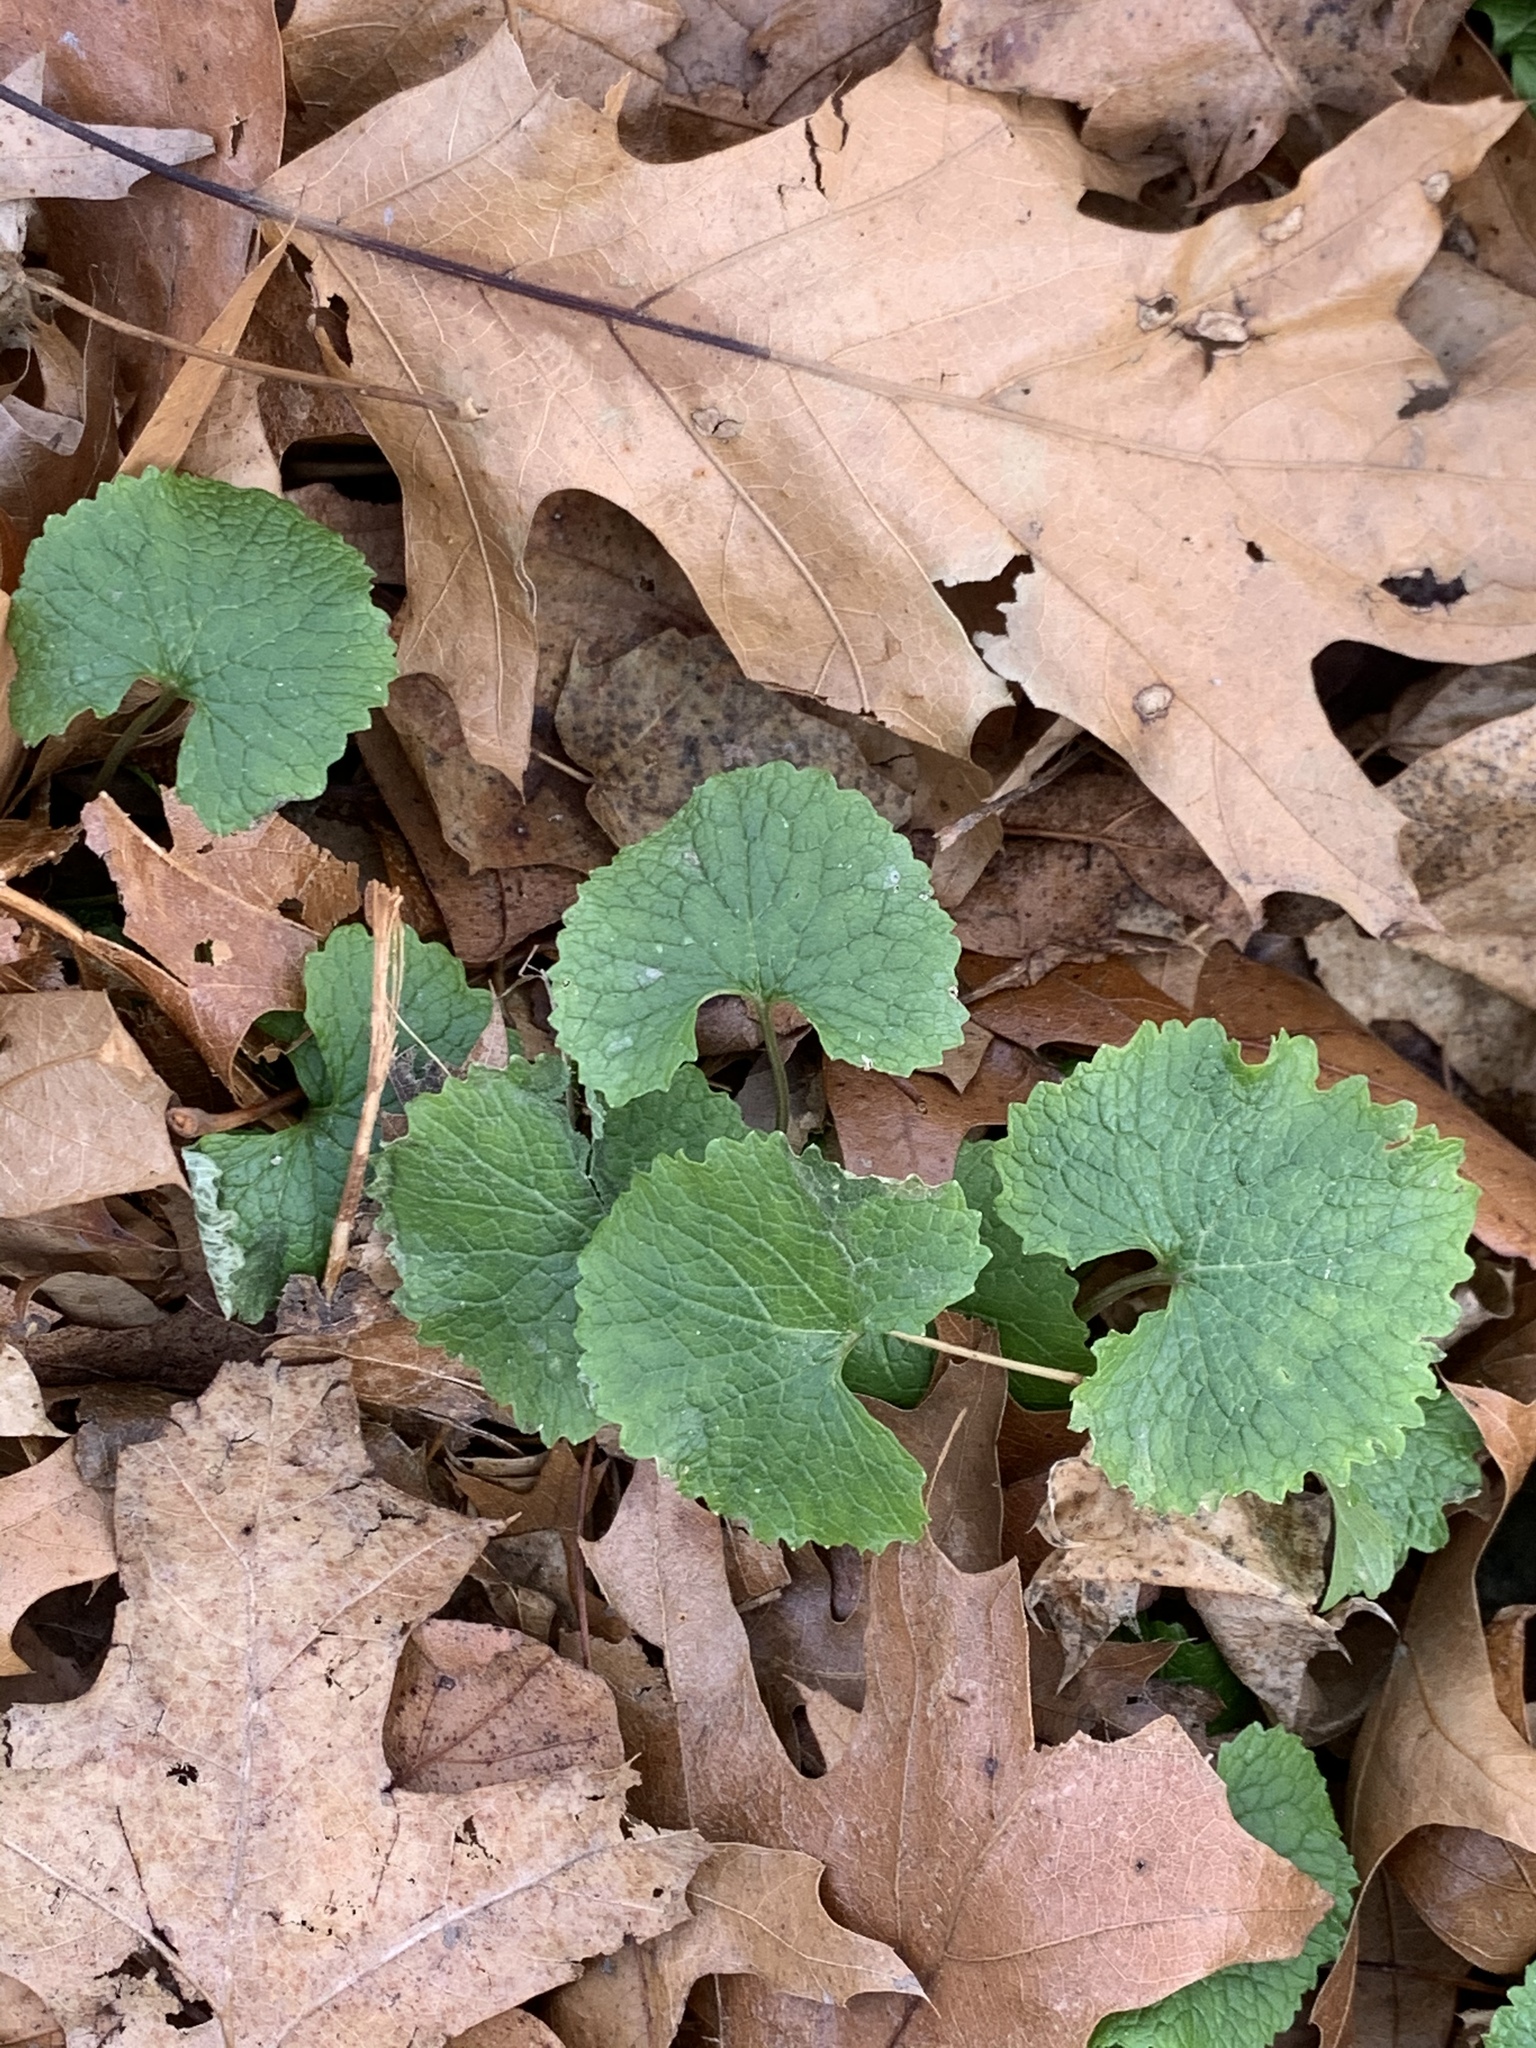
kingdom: Plantae
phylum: Tracheophyta
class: Magnoliopsida
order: Brassicales
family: Brassicaceae
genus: Alliaria
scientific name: Alliaria petiolata
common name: Garlic mustard
